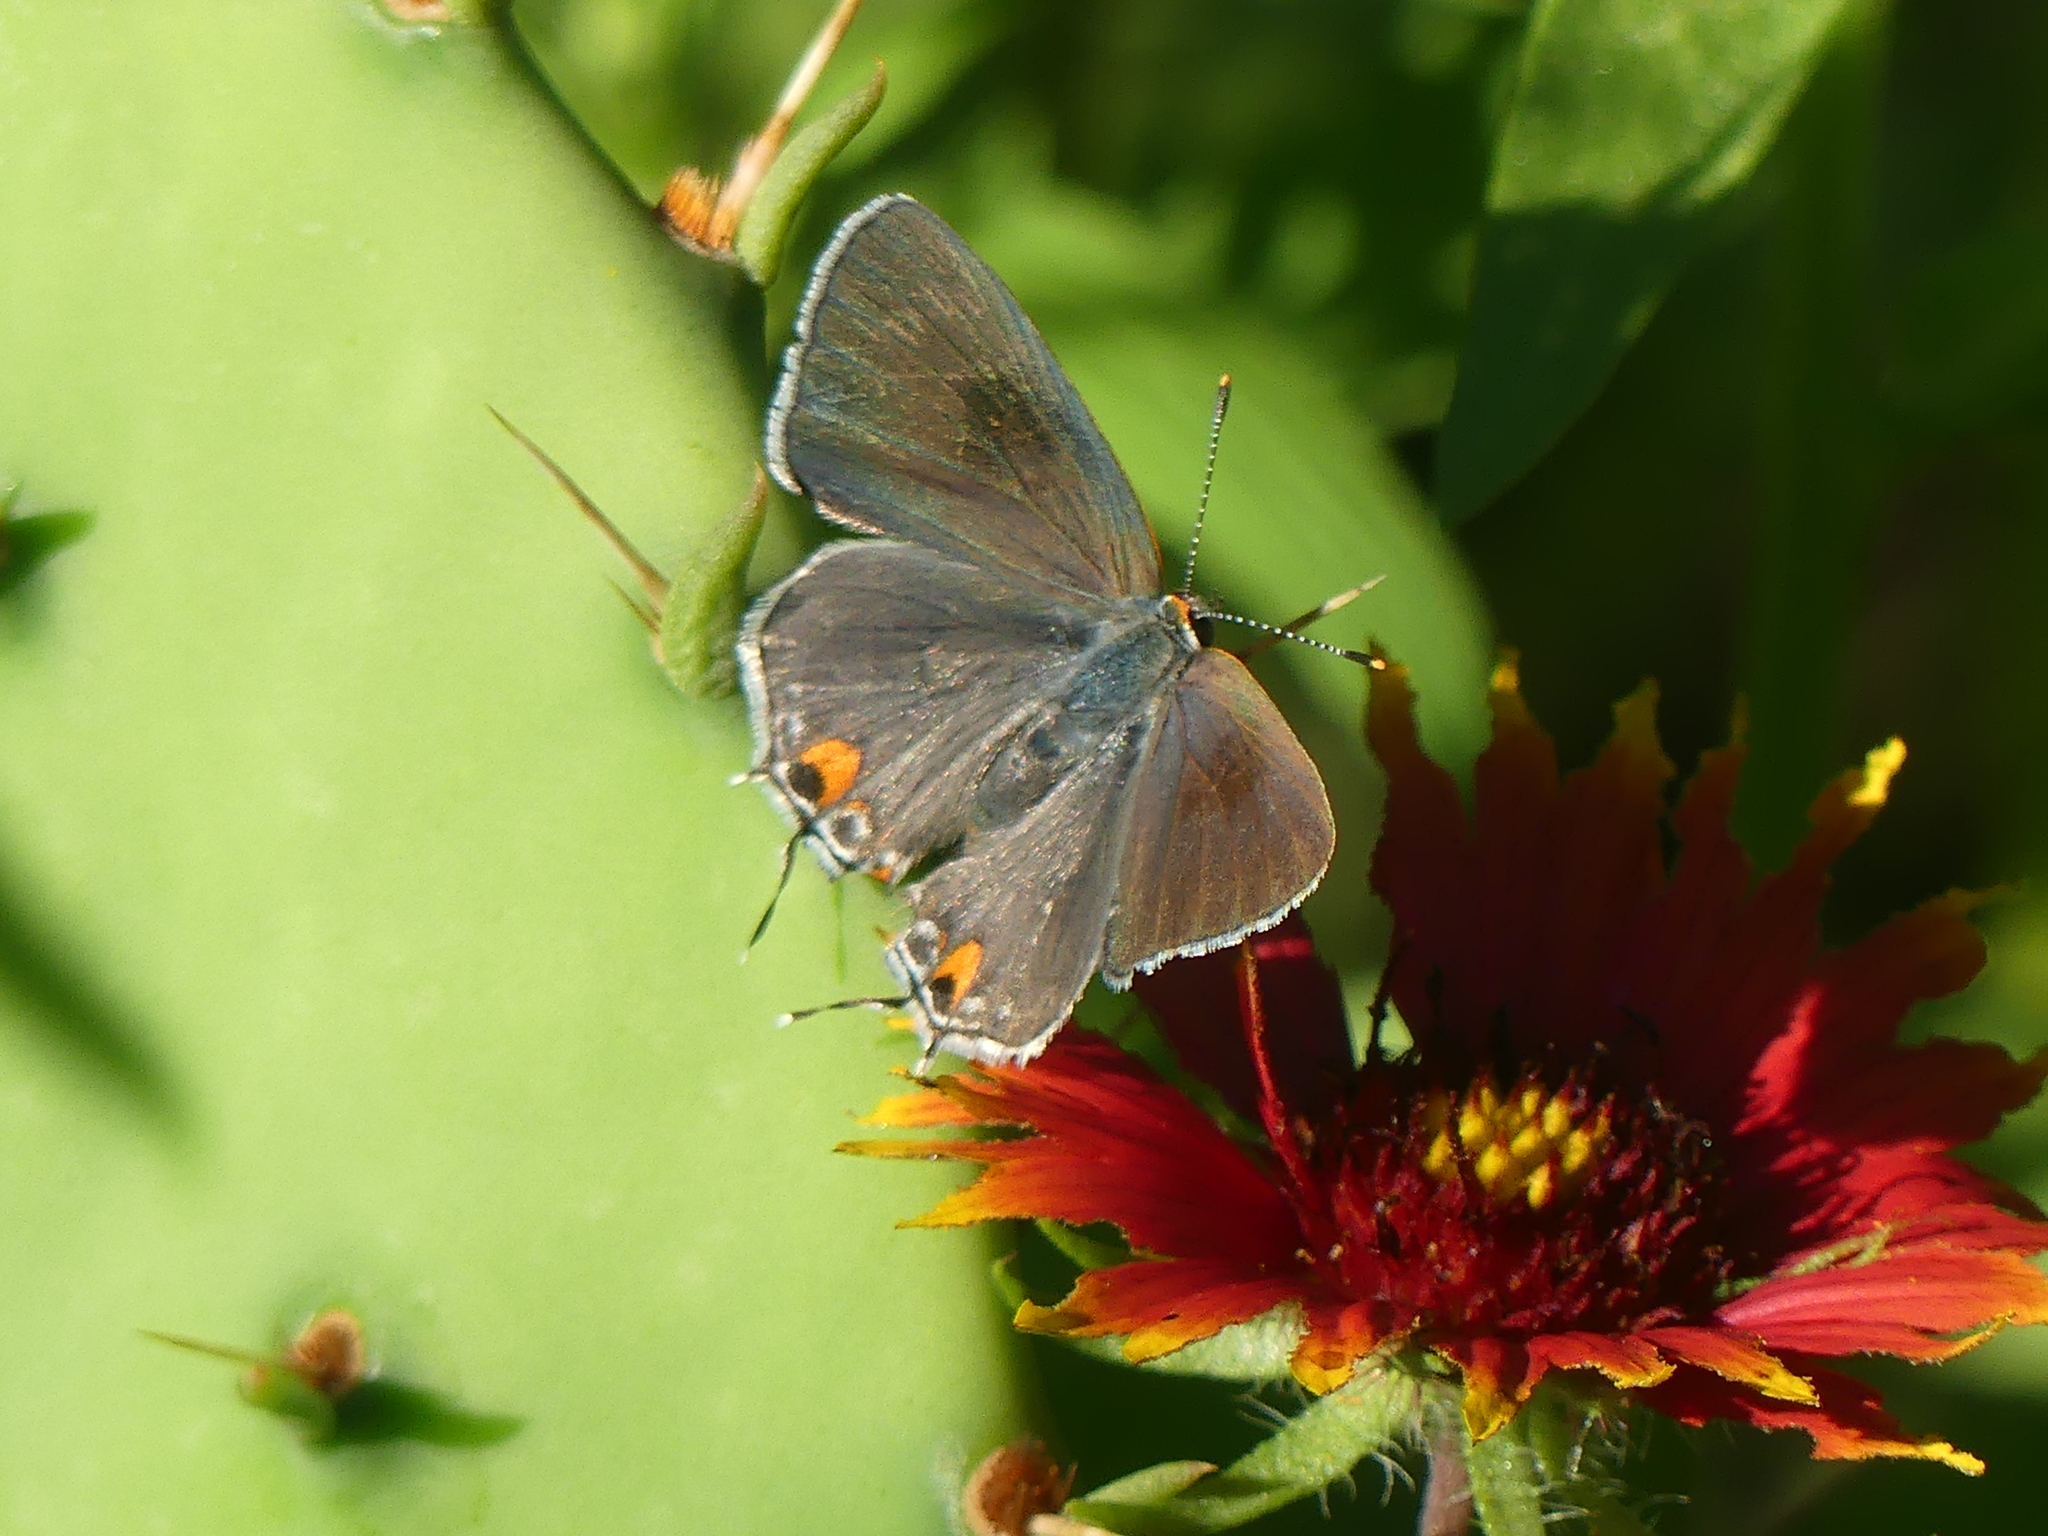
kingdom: Animalia
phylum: Arthropoda
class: Insecta
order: Lepidoptera
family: Lycaenidae
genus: Strymon
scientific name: Strymon melinus
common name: Gray hairstreak
